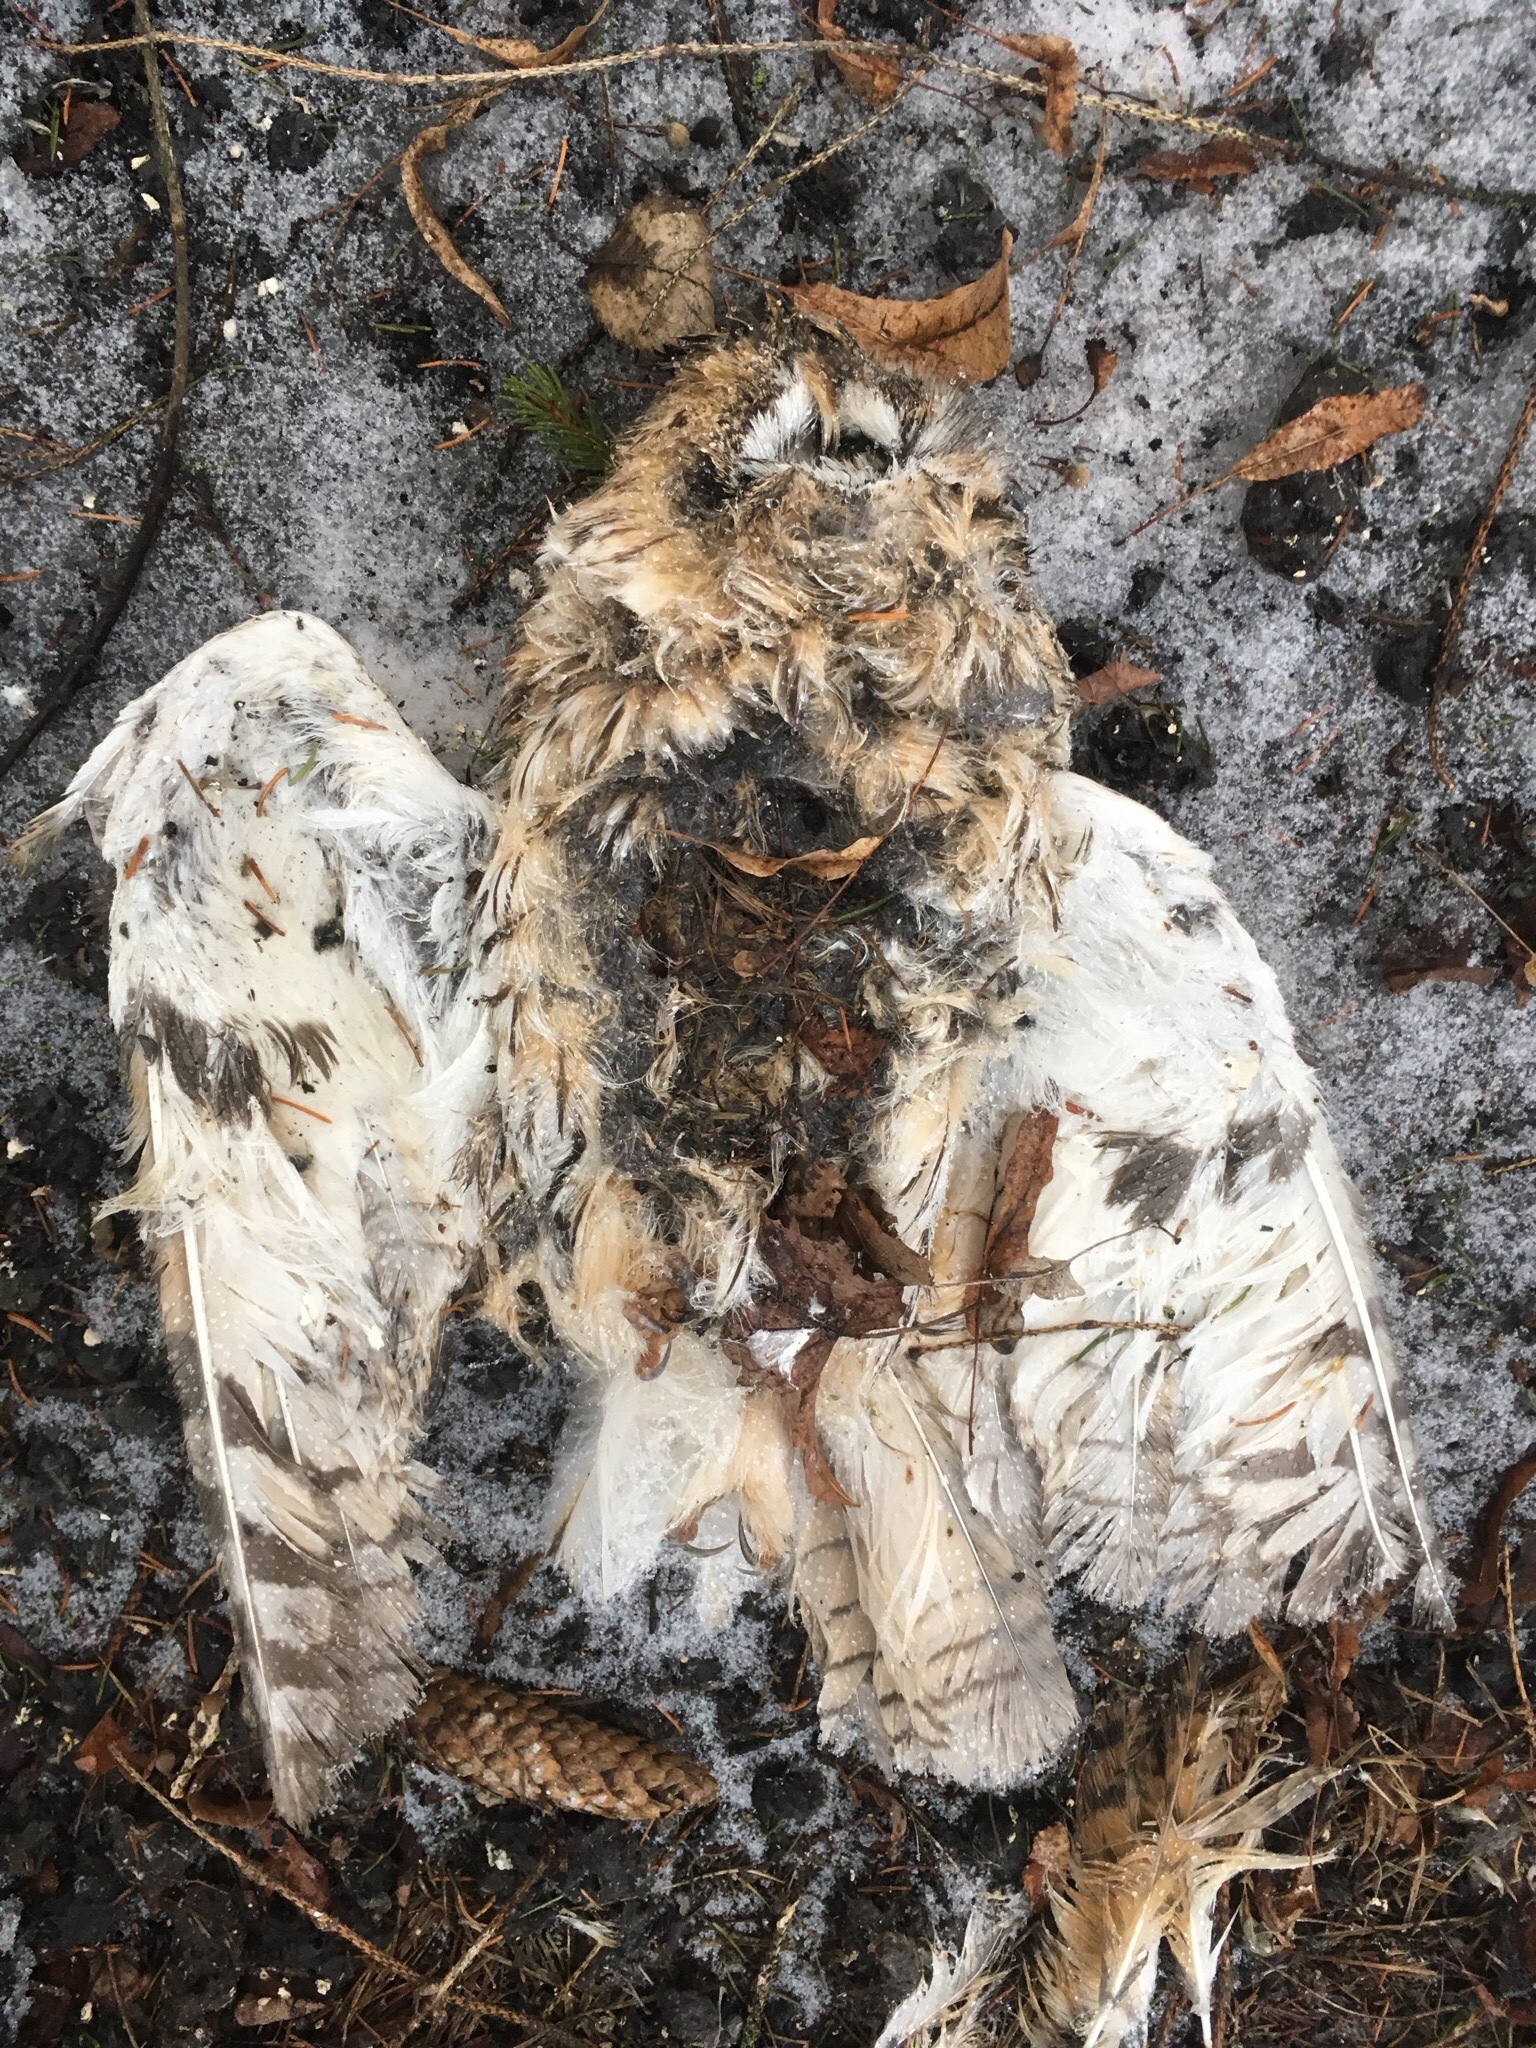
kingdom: Animalia
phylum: Chordata
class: Aves
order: Strigiformes
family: Strigidae
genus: Asio
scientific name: Asio otus
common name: Long-eared owl
